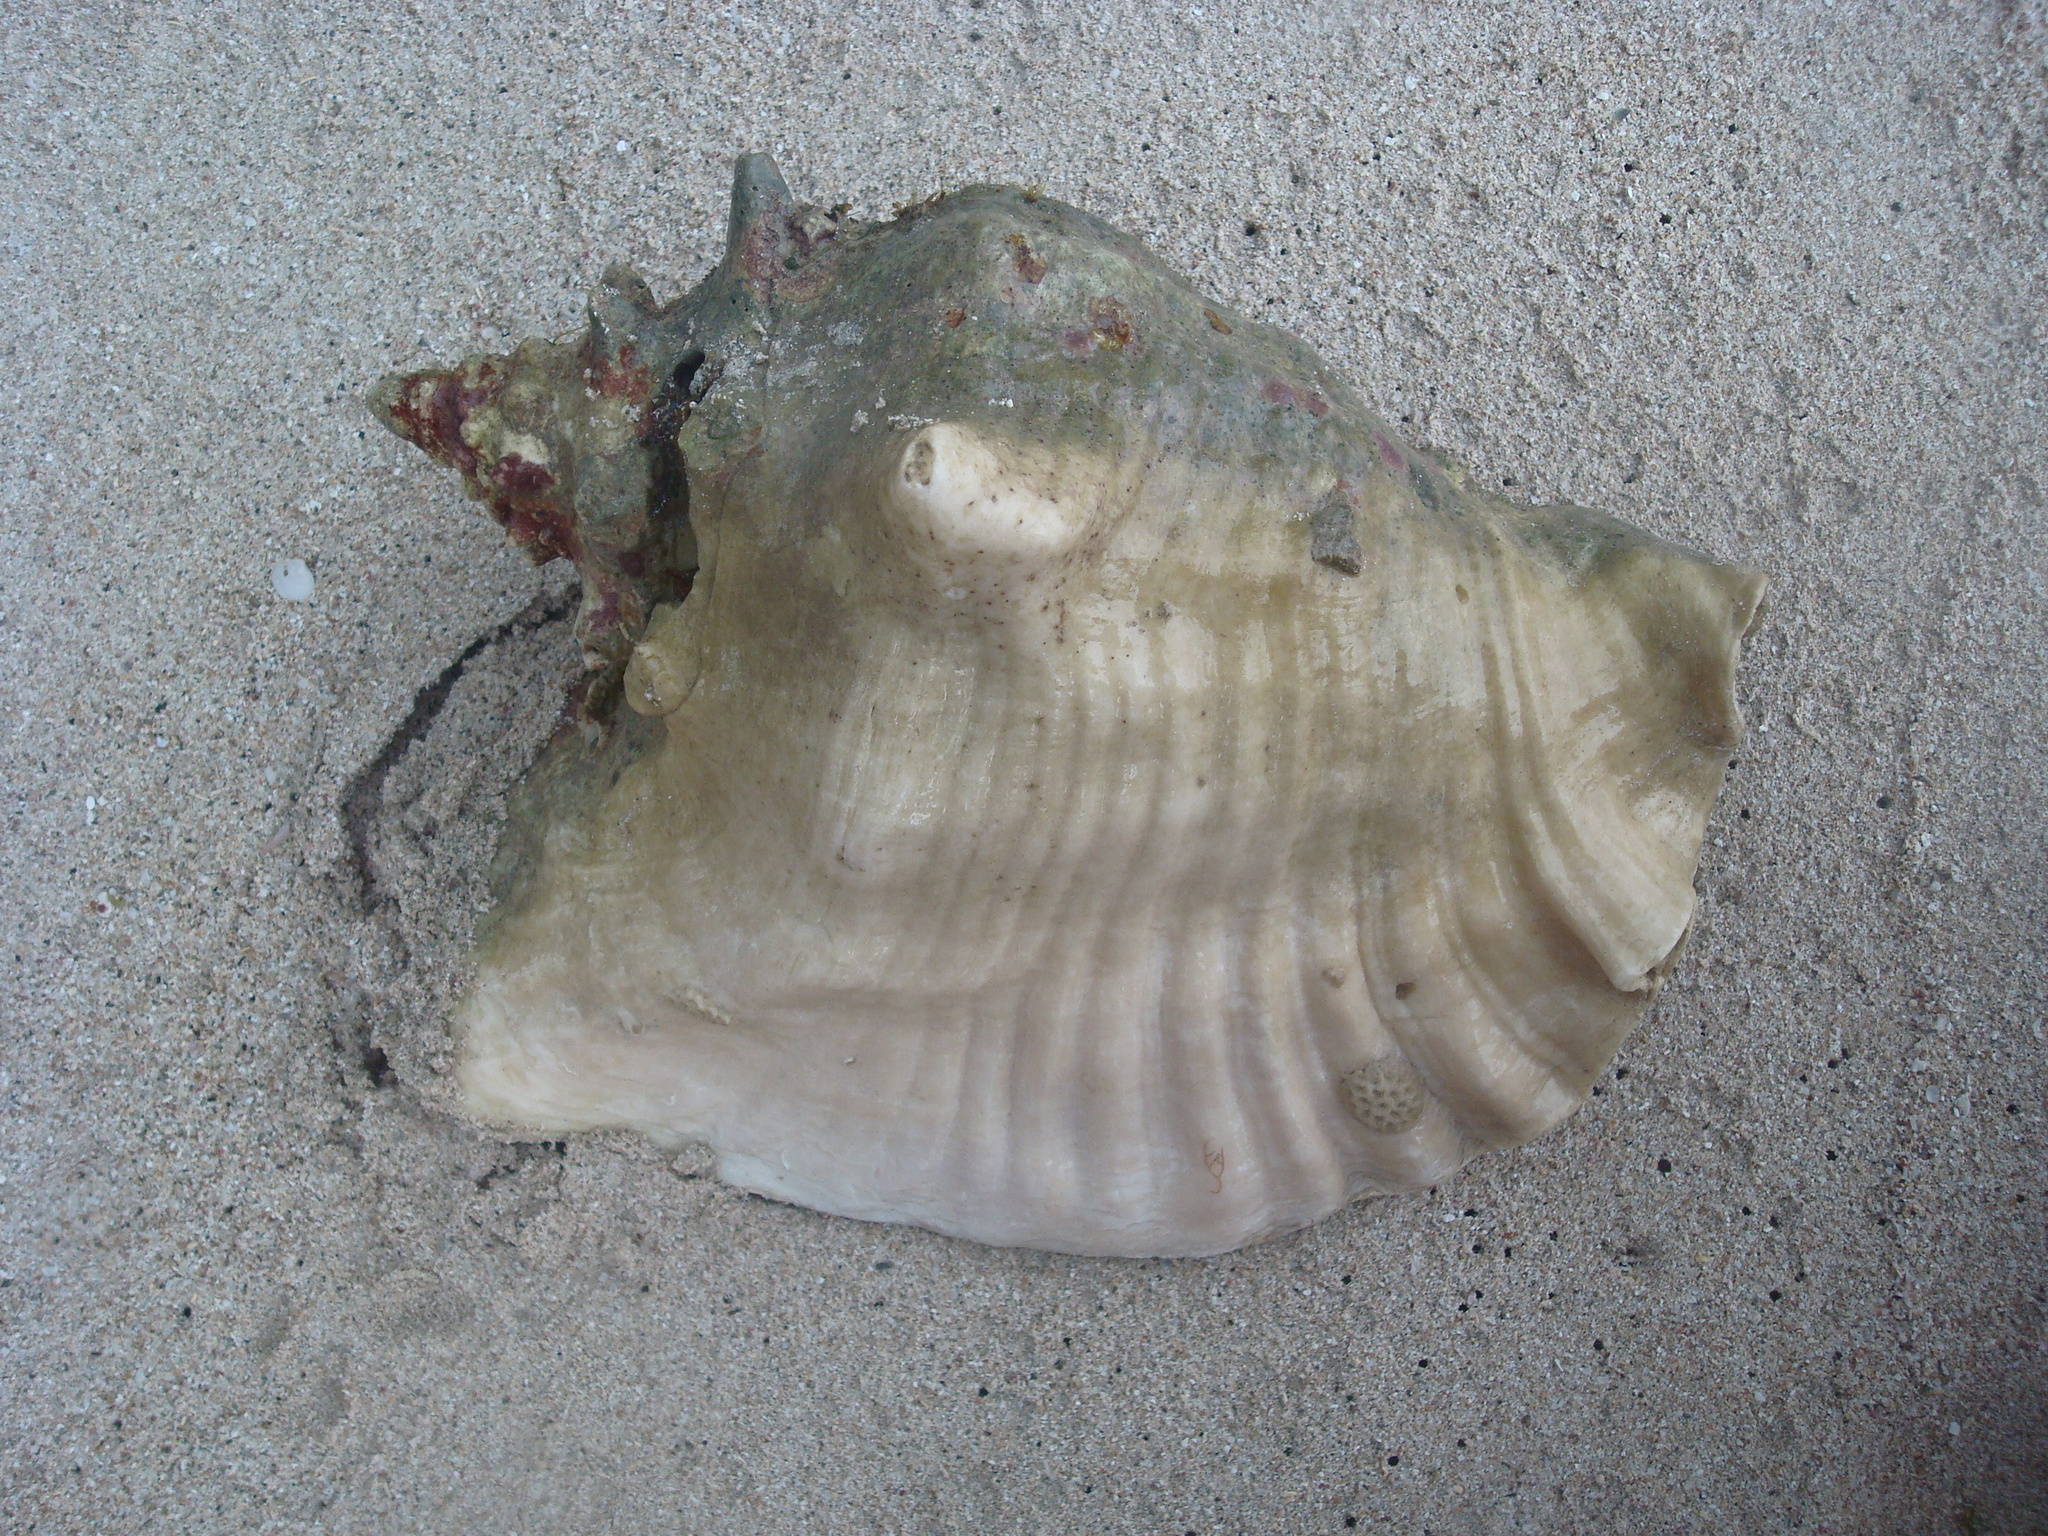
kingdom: Animalia
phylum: Mollusca
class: Gastropoda
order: Littorinimorpha
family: Strombidae
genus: Aliger
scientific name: Aliger gigas
